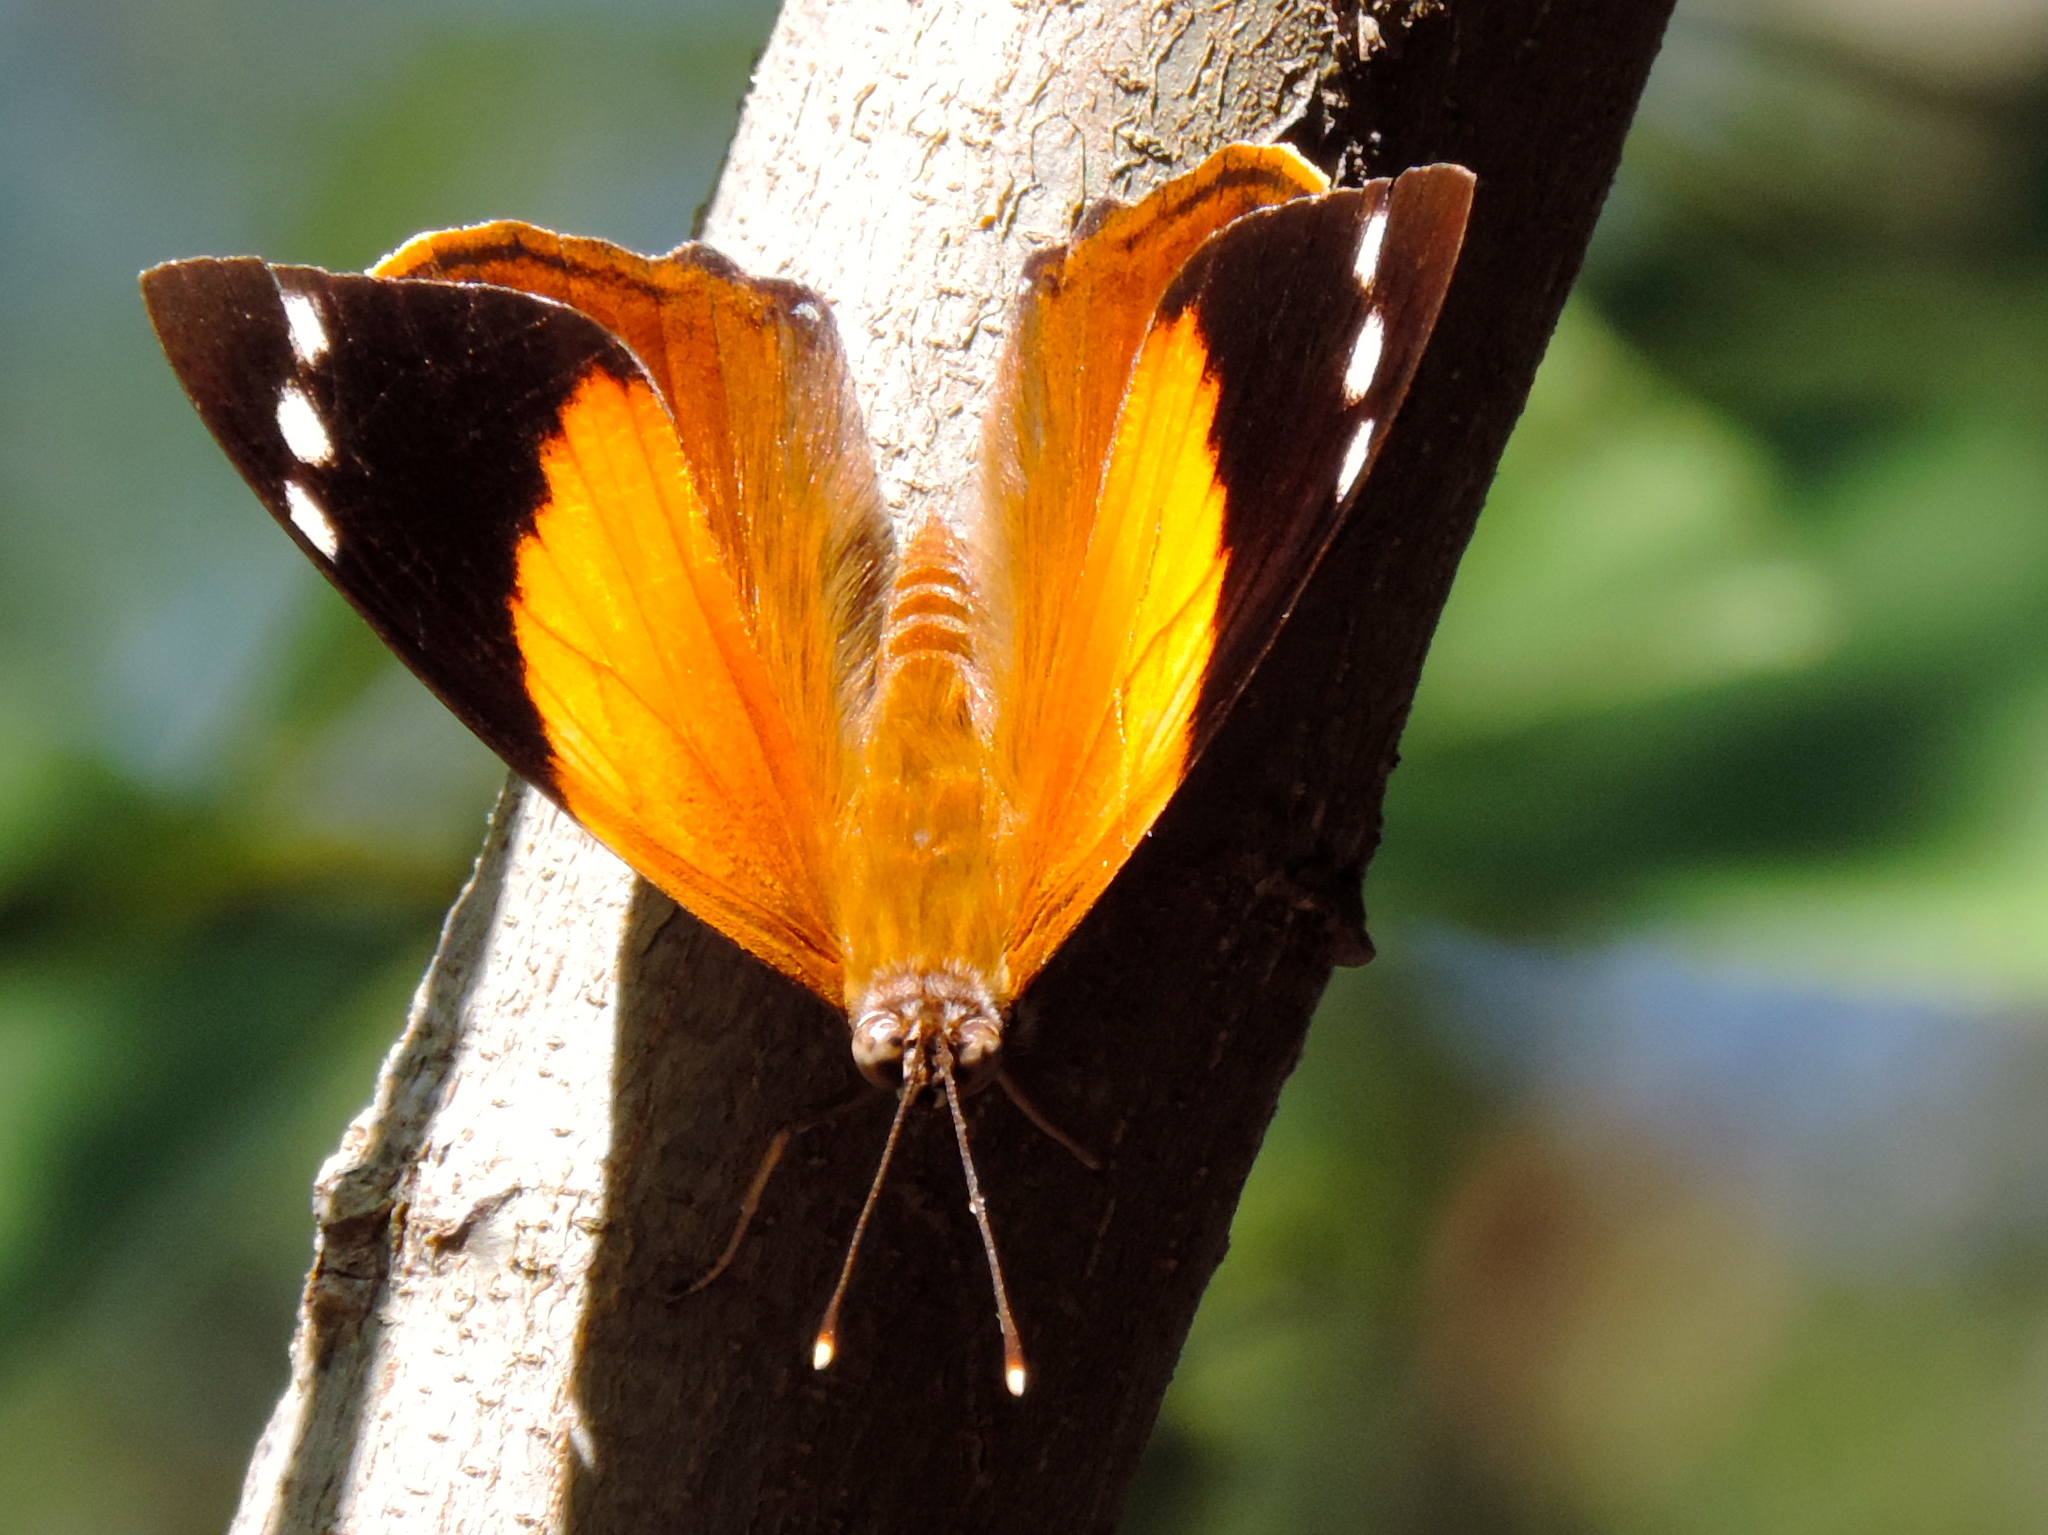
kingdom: Animalia
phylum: Arthropoda
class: Insecta
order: Lepidoptera
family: Nymphalidae
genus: Smyrna
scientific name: Smyrna blomfildia
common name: Blomfild's beauty
